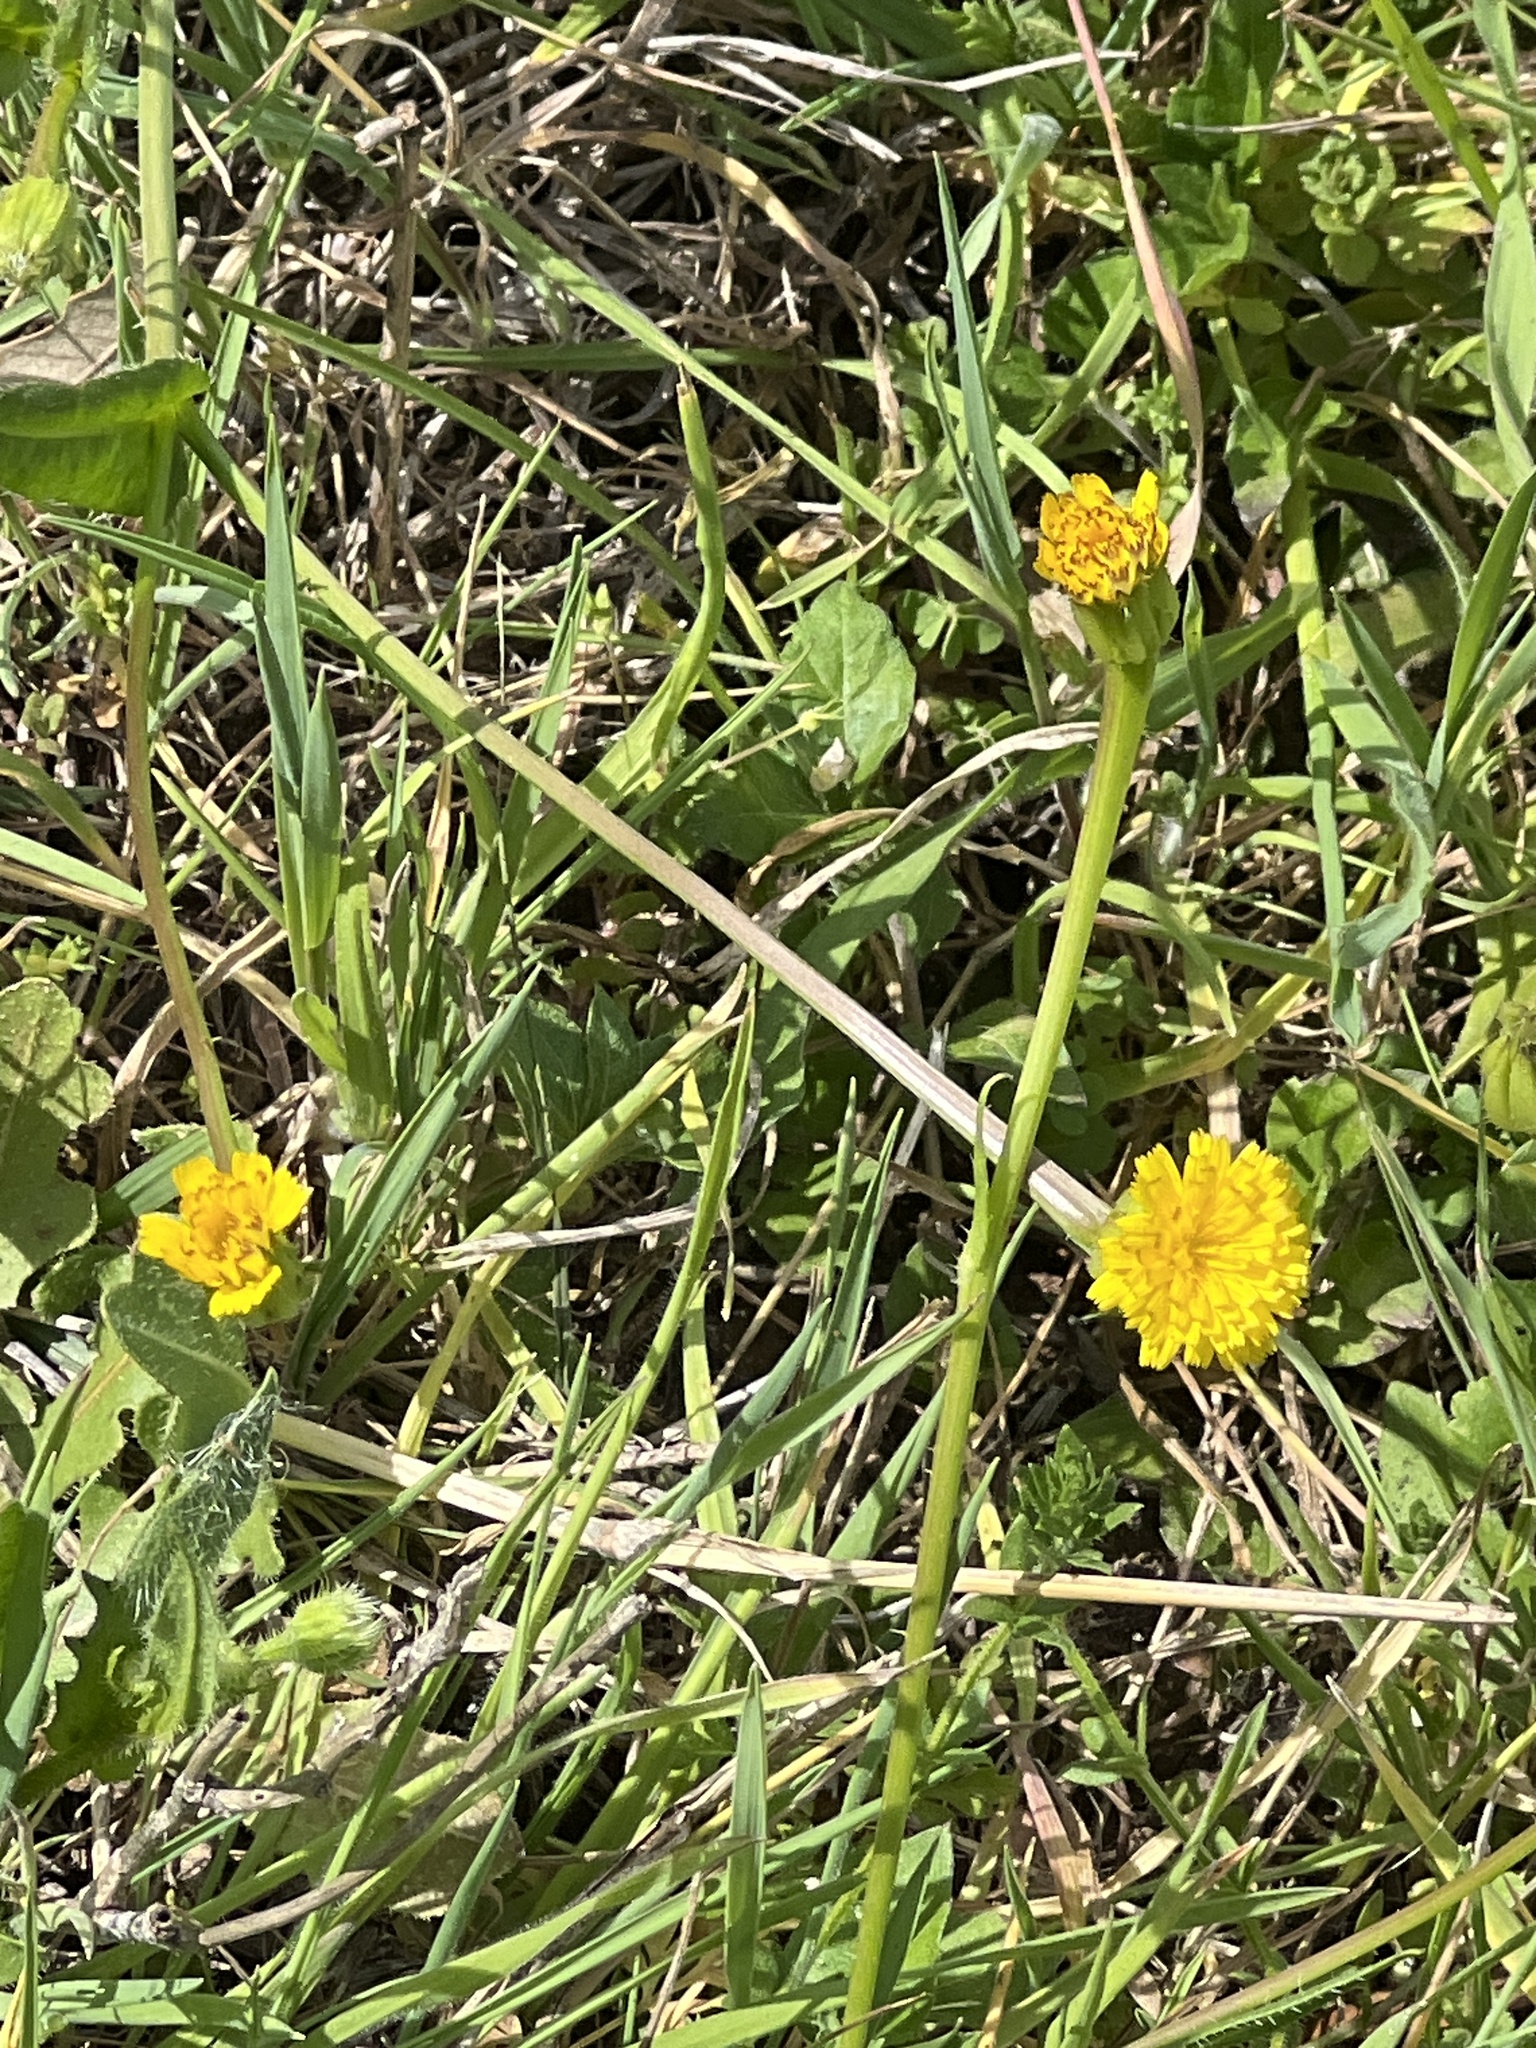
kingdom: Plantae
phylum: Tracheophyta
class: Magnoliopsida
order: Asterales
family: Asteraceae
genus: Hedypnois
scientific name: Hedypnois rhagadioloides
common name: Cretan weed
